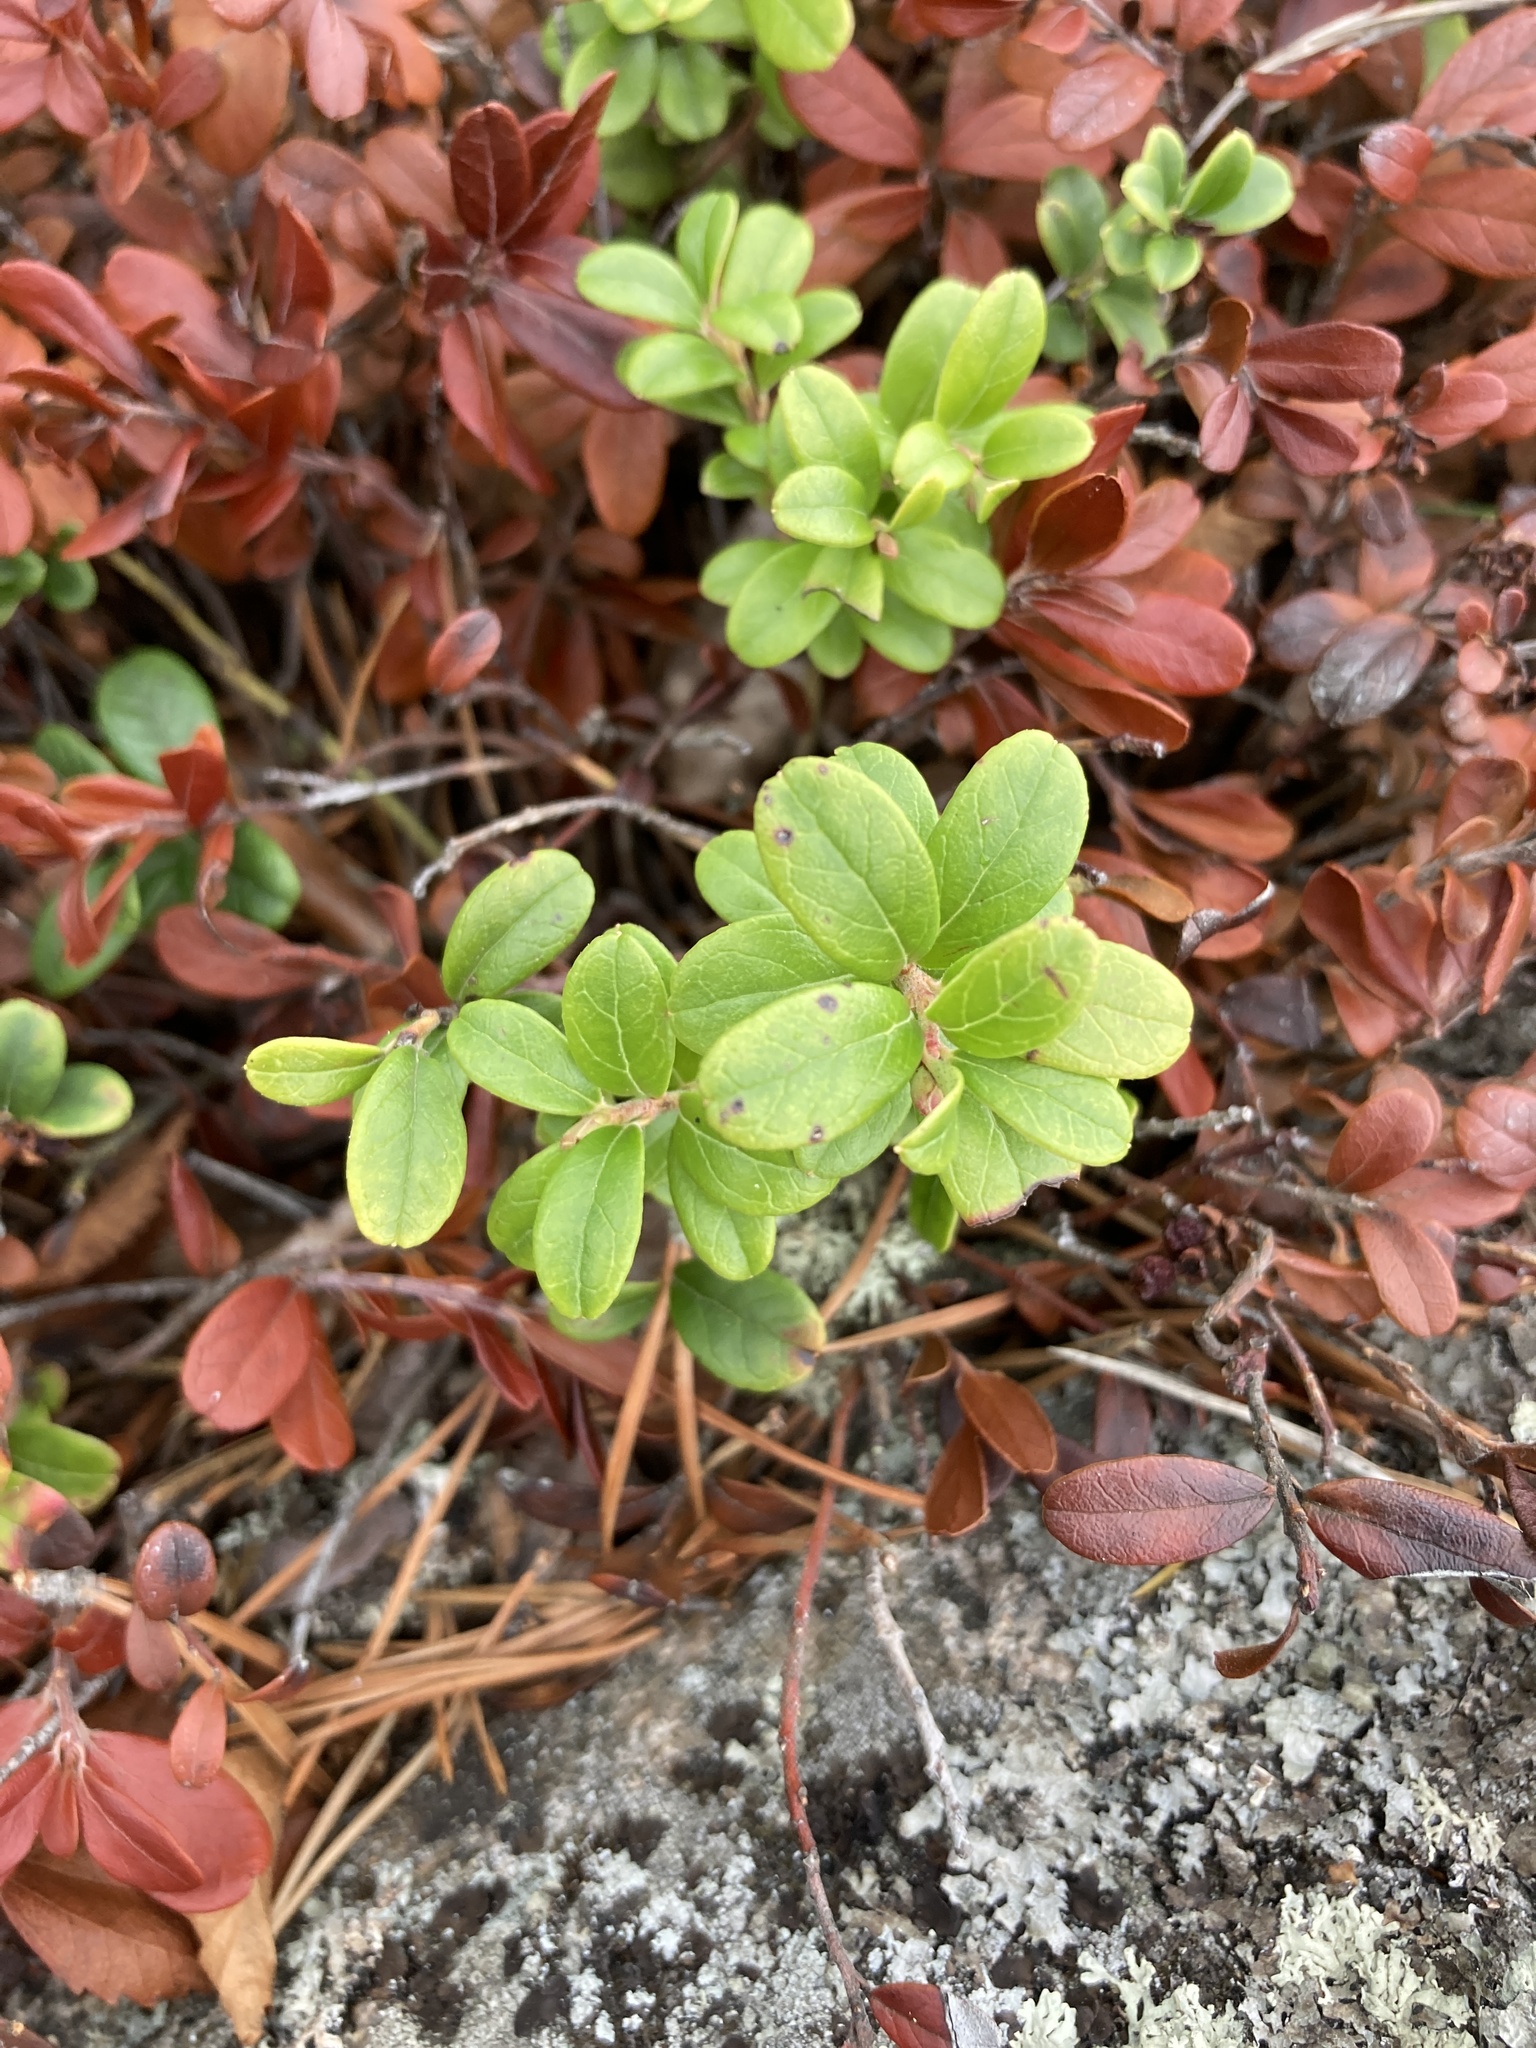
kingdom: Plantae
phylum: Tracheophyta
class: Magnoliopsida
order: Ericales
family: Ericaceae
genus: Vaccinium
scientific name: Vaccinium vitis-idaea
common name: Cowberry
